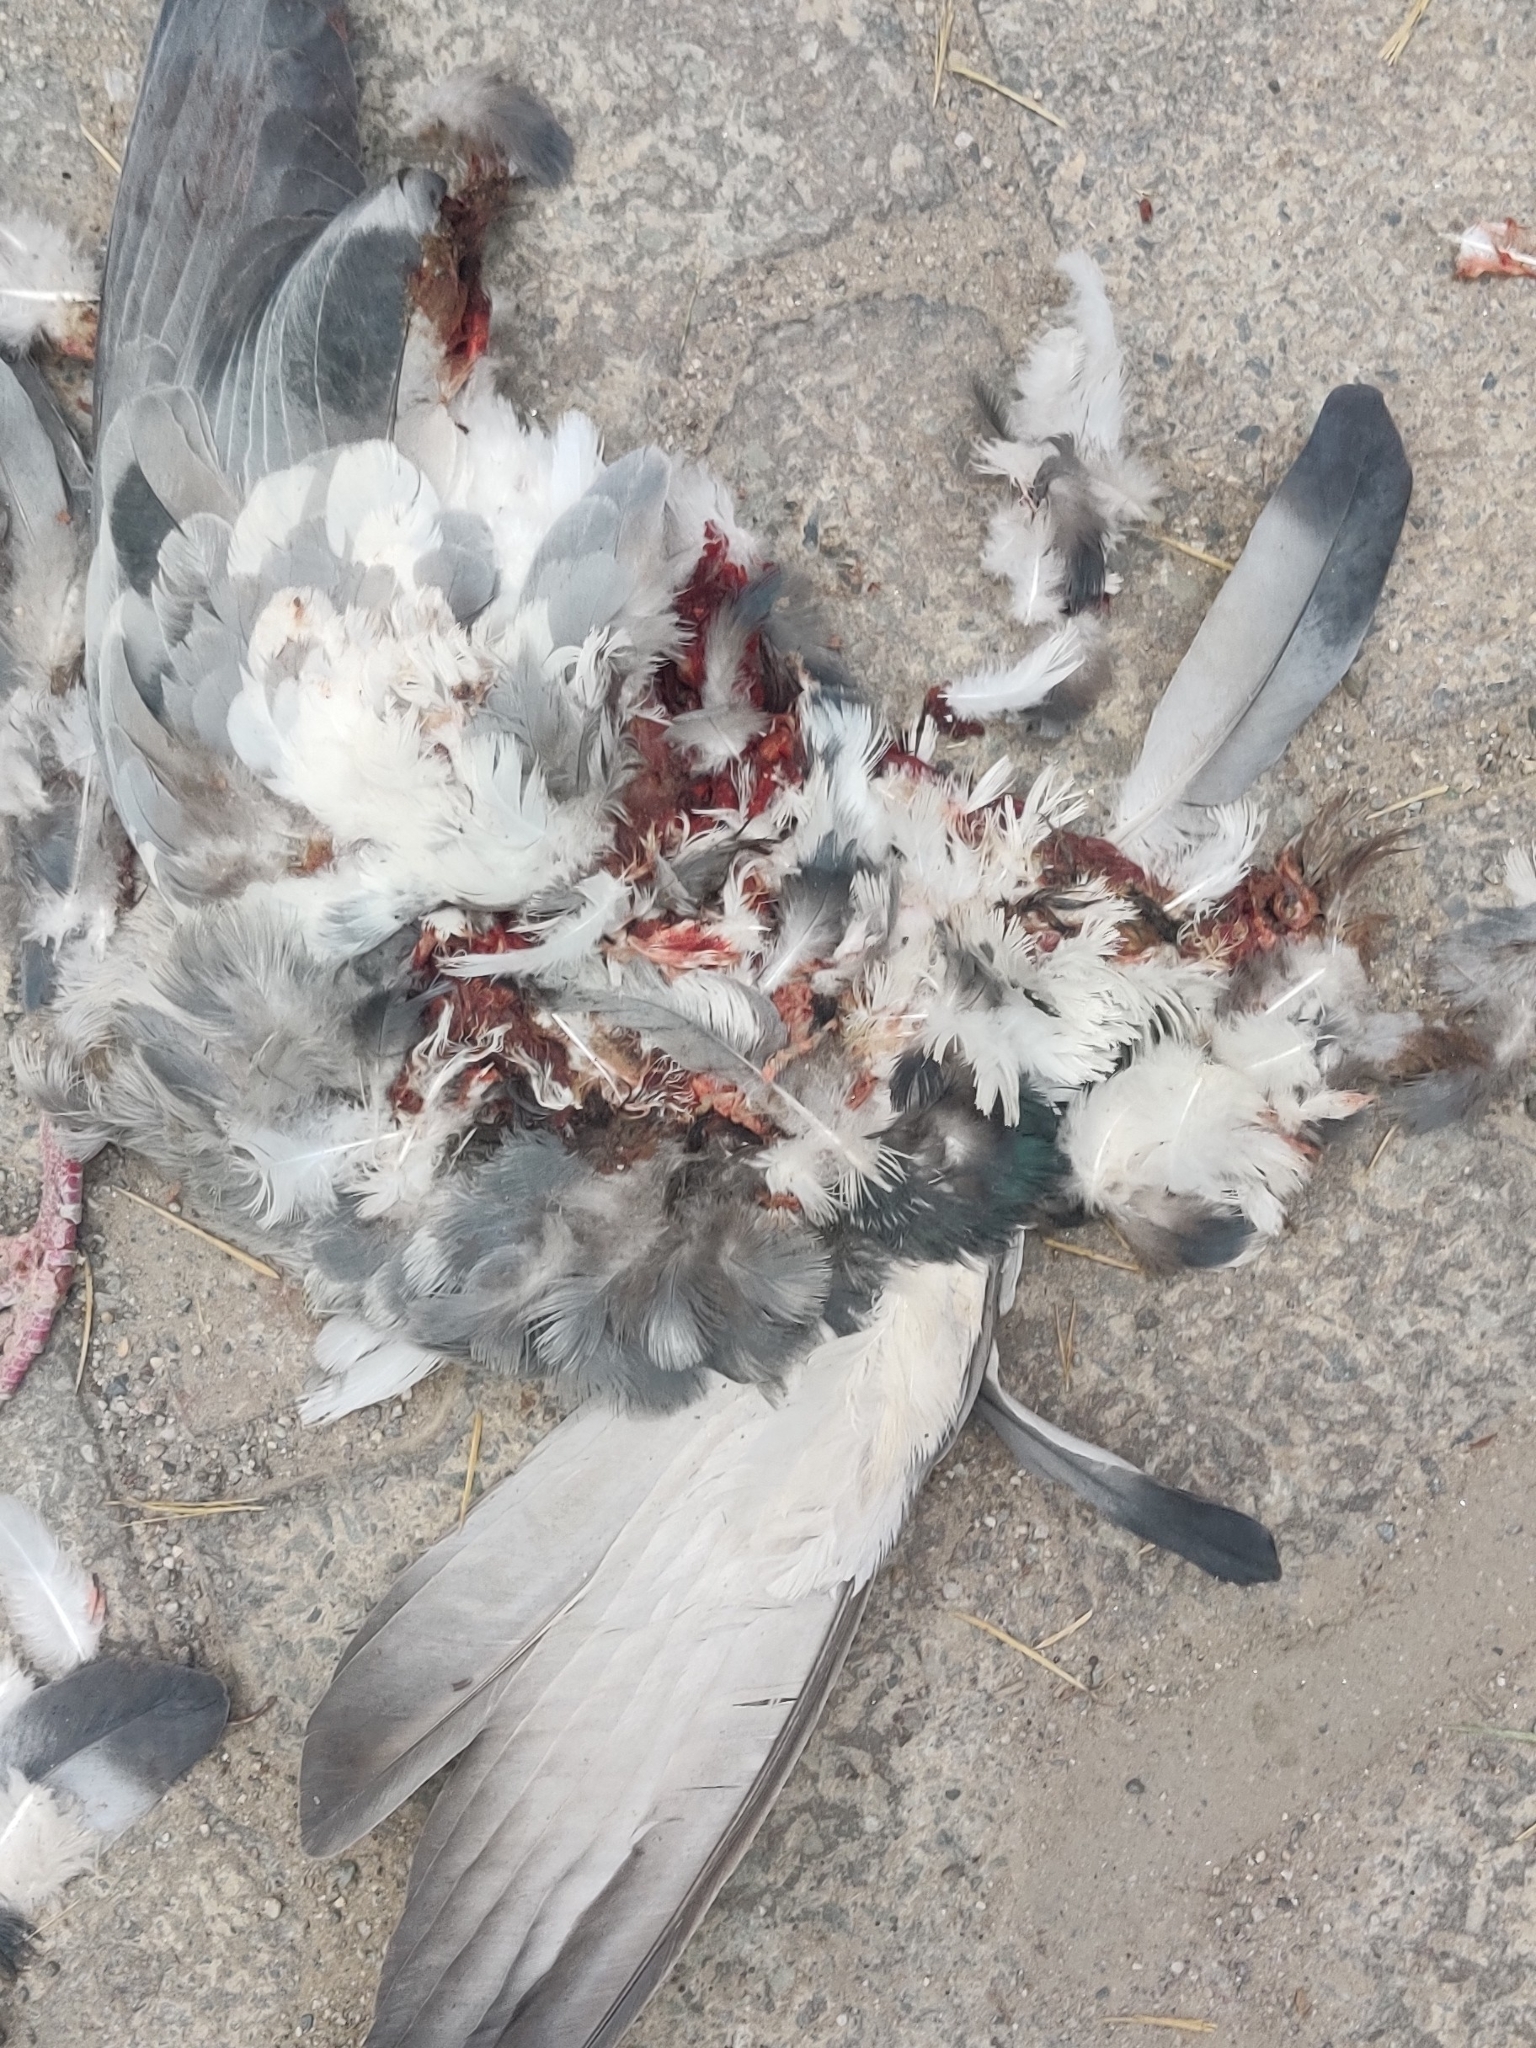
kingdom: Animalia
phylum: Chordata
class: Aves
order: Columbiformes
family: Columbidae
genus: Columba
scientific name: Columba livia
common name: Rock pigeon
